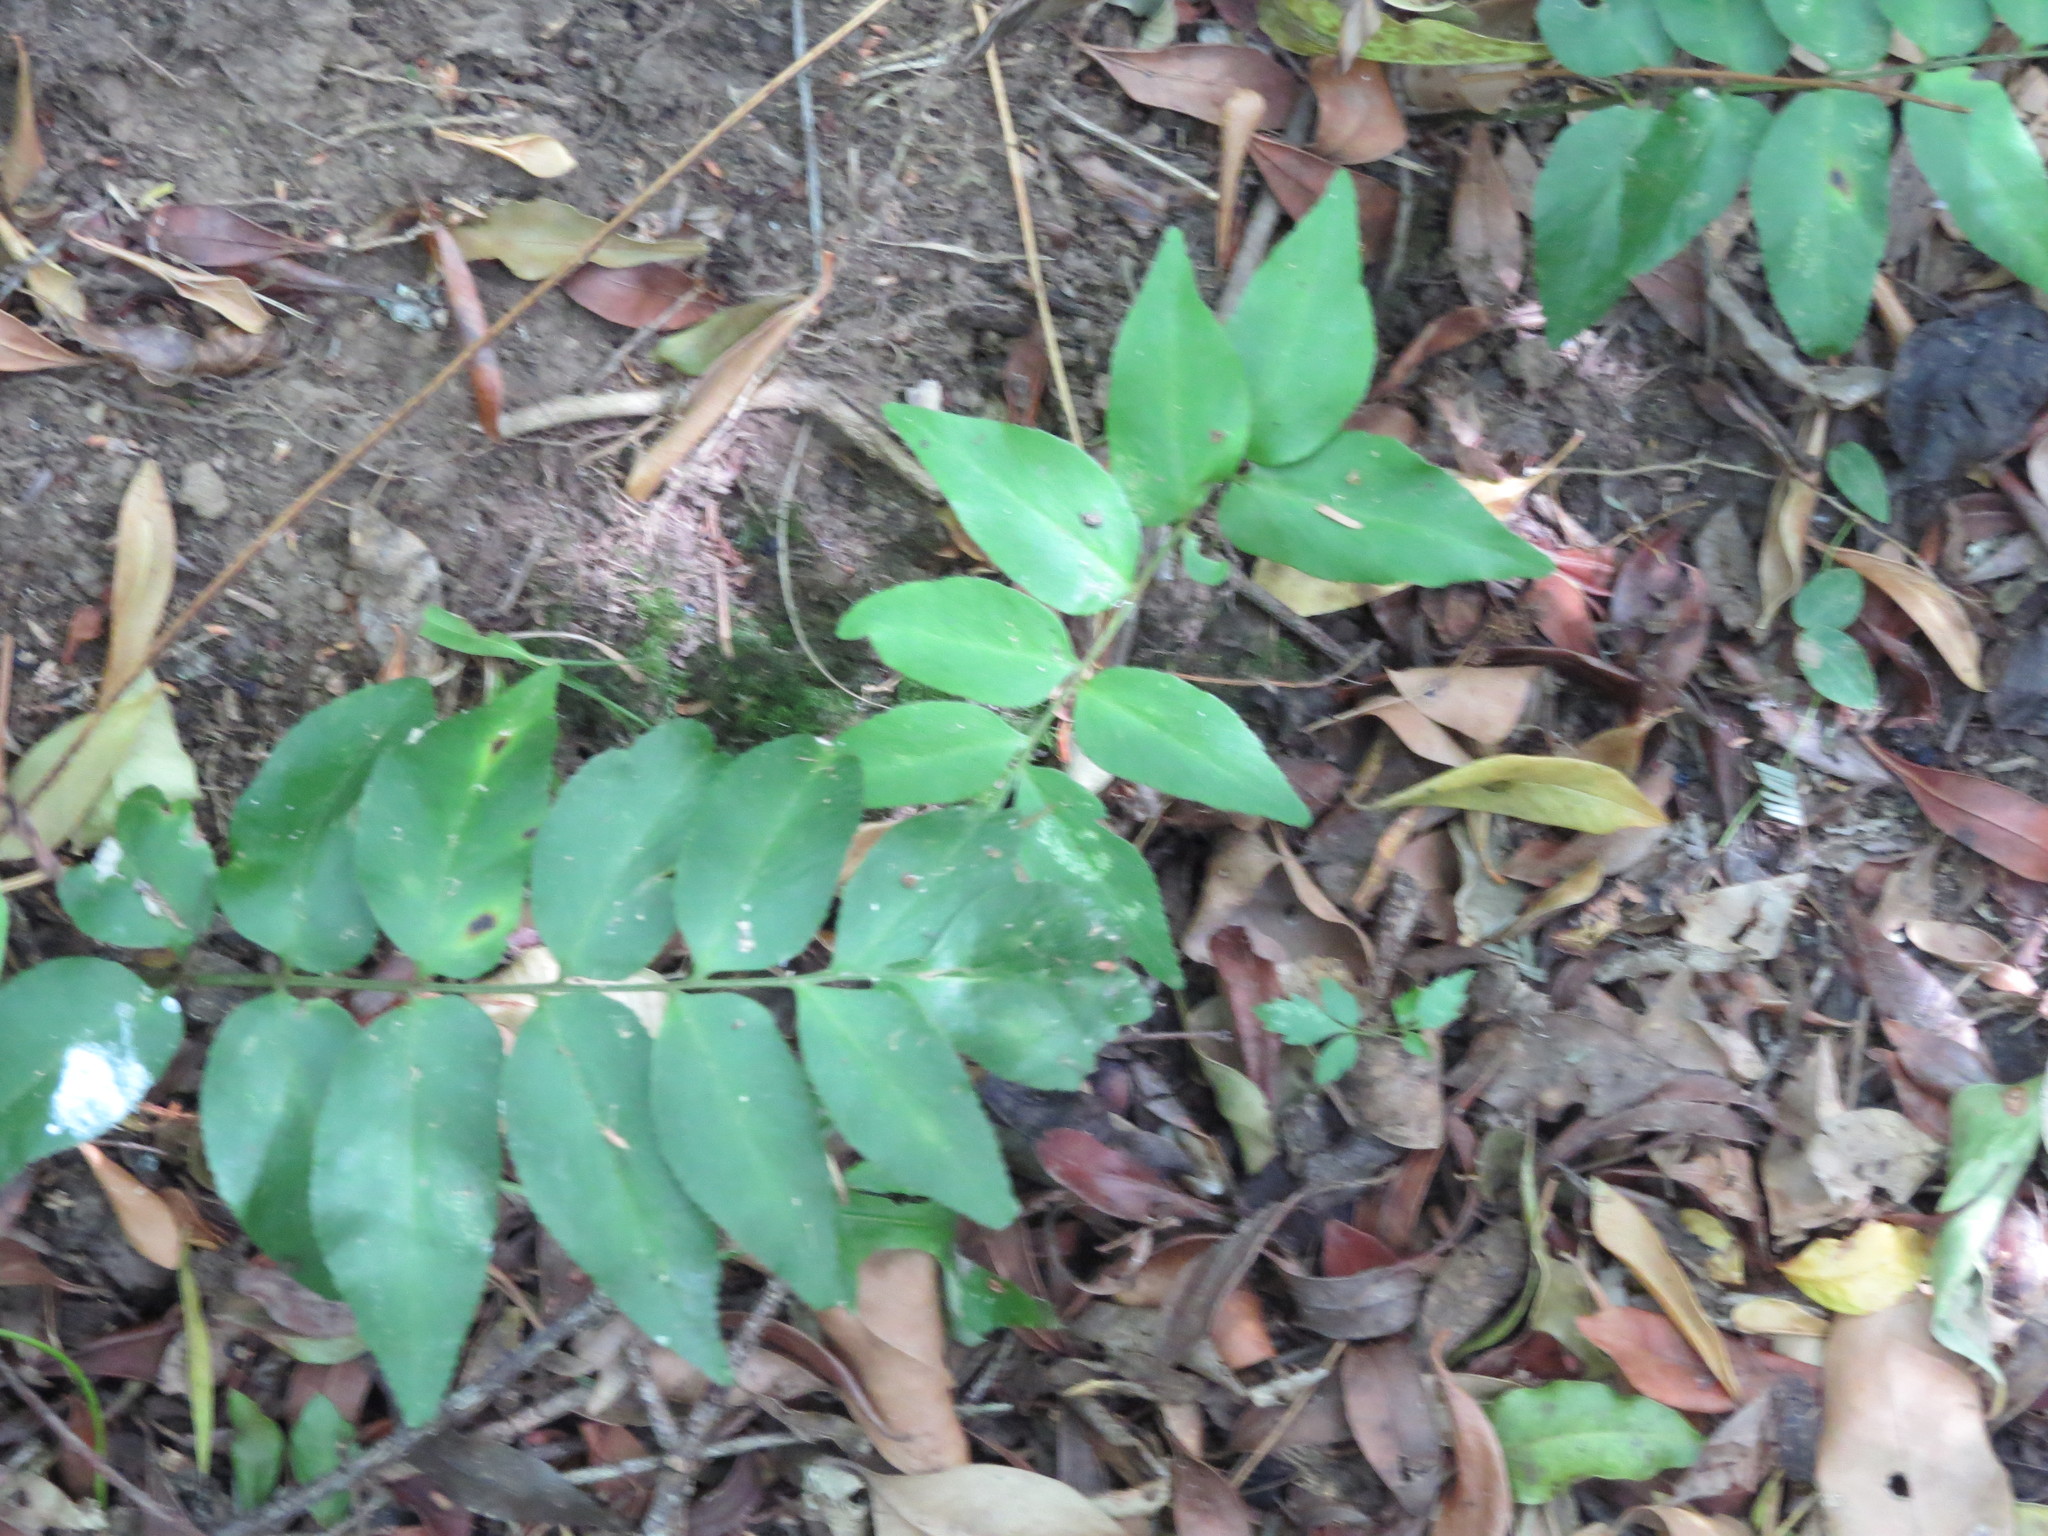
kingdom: Plantae
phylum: Tracheophyta
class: Polypodiopsida
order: Schizaeales
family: Anemiaceae
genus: Anemia
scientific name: Anemia phyllitidis
